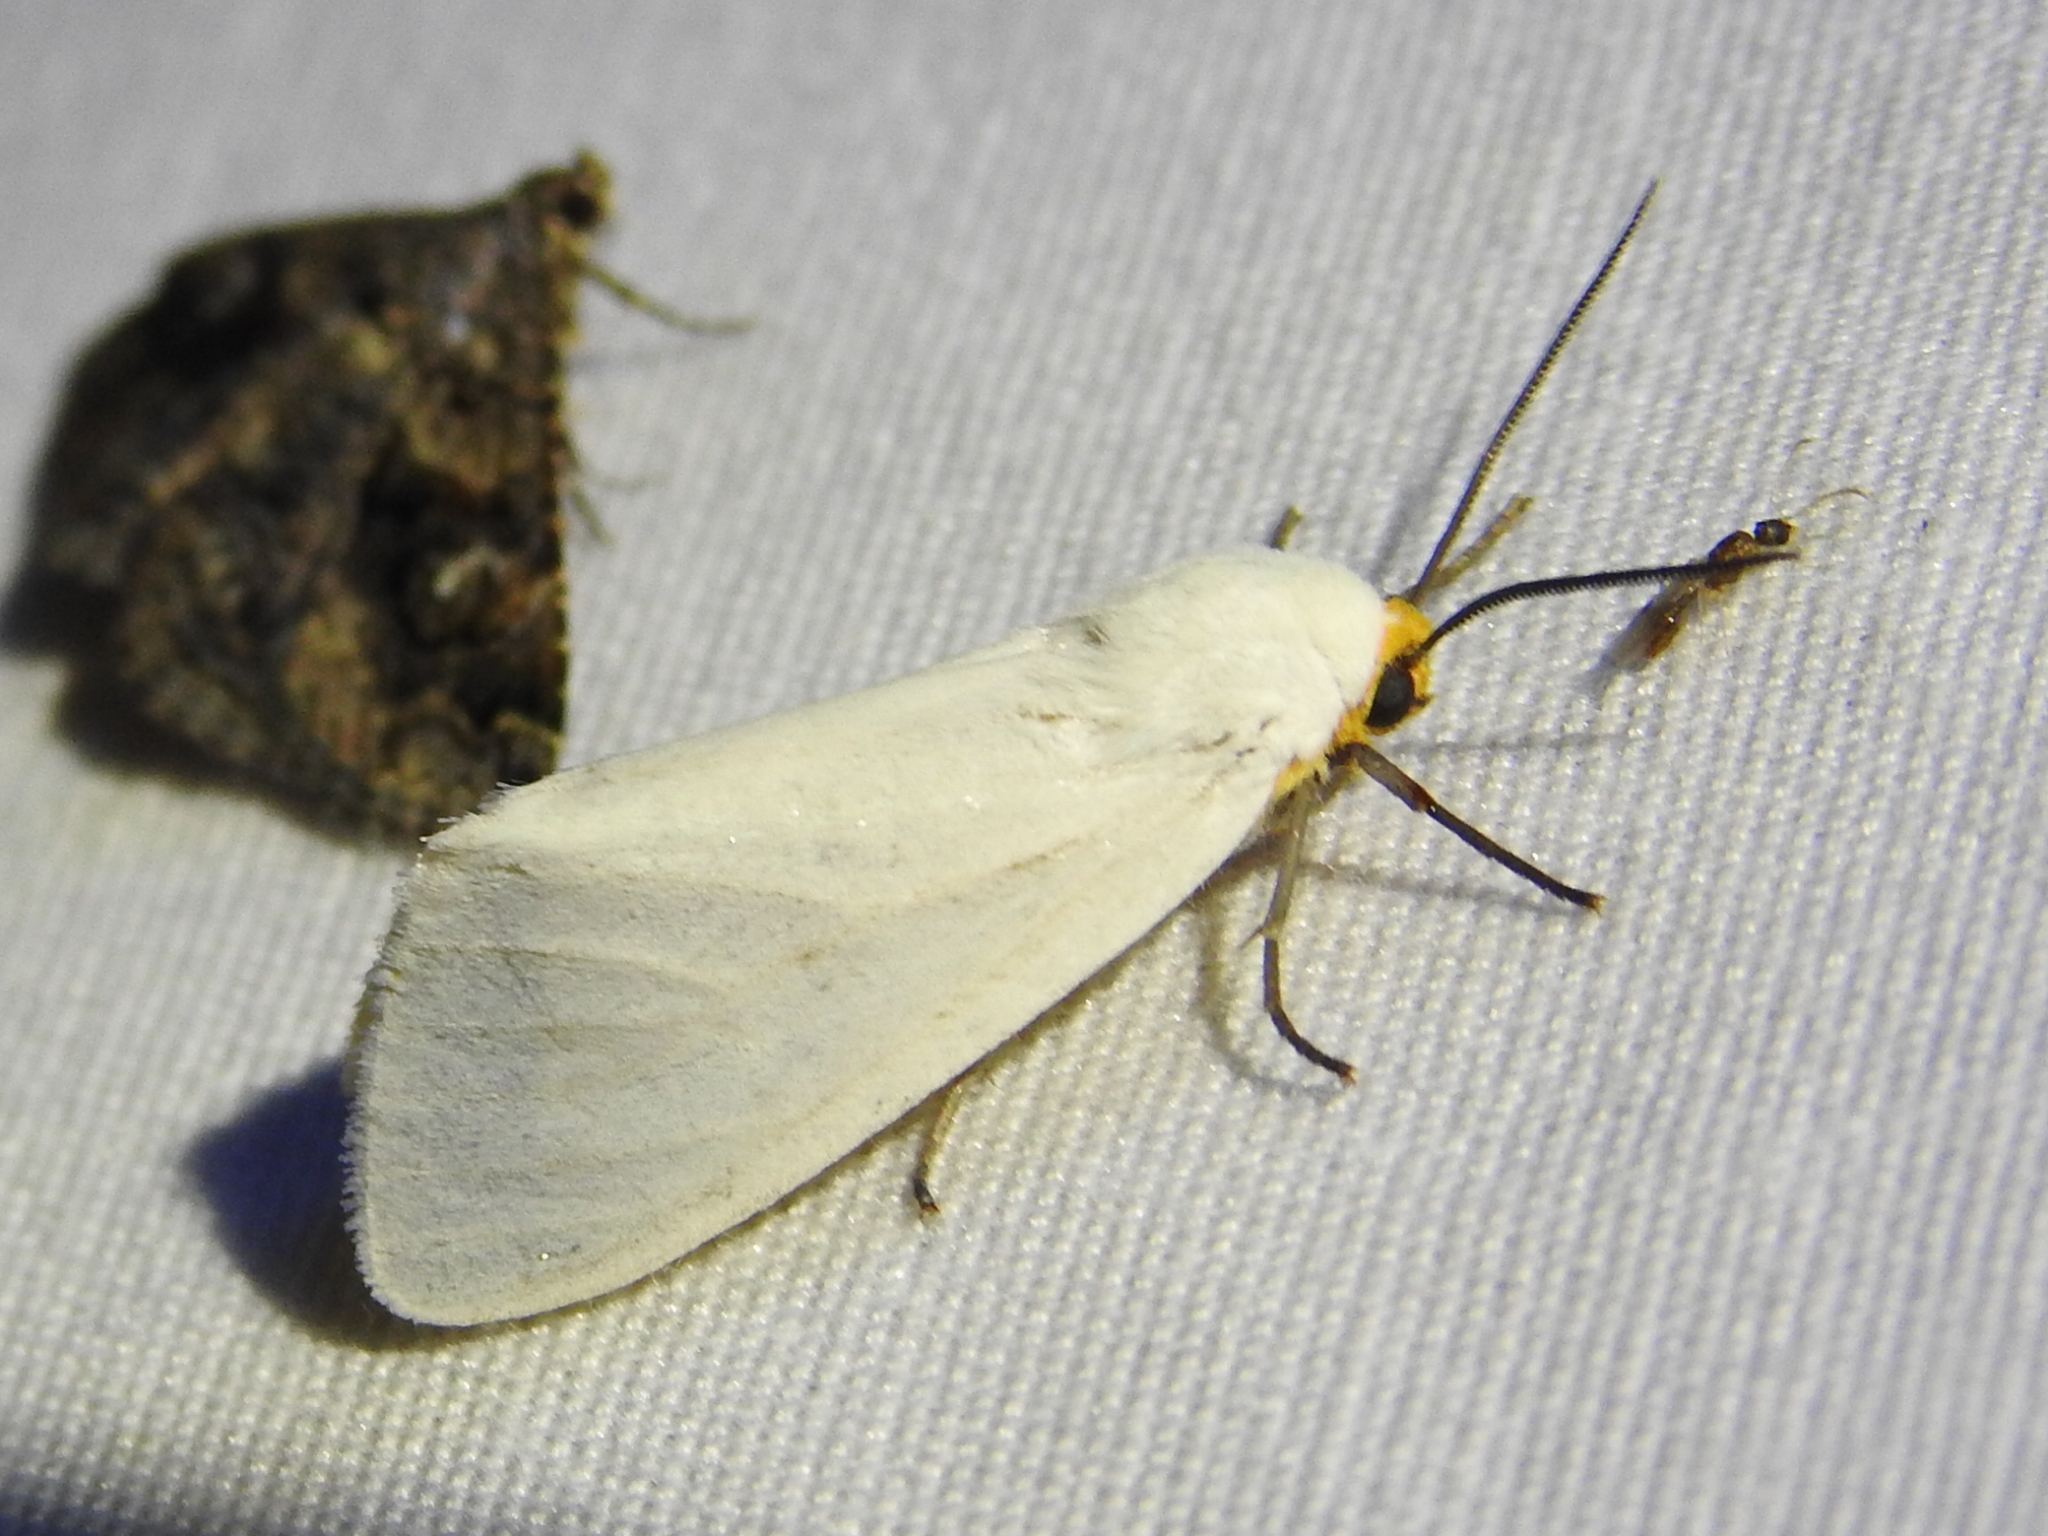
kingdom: Animalia
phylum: Arthropoda
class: Insecta
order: Lepidoptera
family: Erebidae
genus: Pygarctia
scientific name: Pygarctia flavidorsalis
